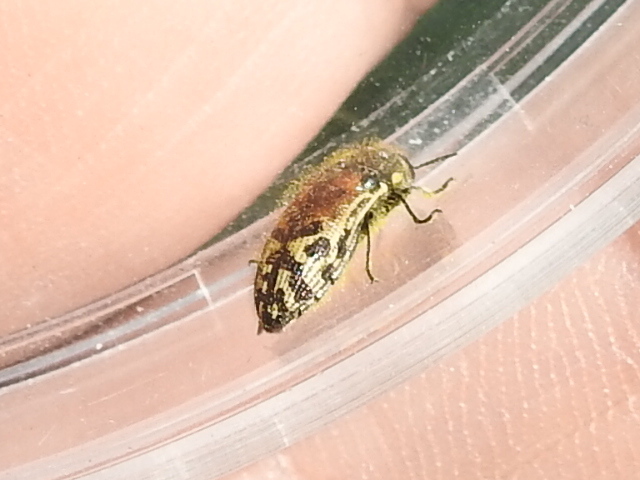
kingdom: Animalia
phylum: Arthropoda
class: Insecta
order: Coleoptera
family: Buprestidae
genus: Acmaeodera
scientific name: Acmaeodera mixta
